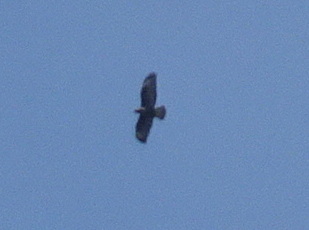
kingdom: Animalia
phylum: Chordata
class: Aves
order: Accipitriformes
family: Accipitridae
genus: Buteo
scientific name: Buteo buteo
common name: Common buzzard
